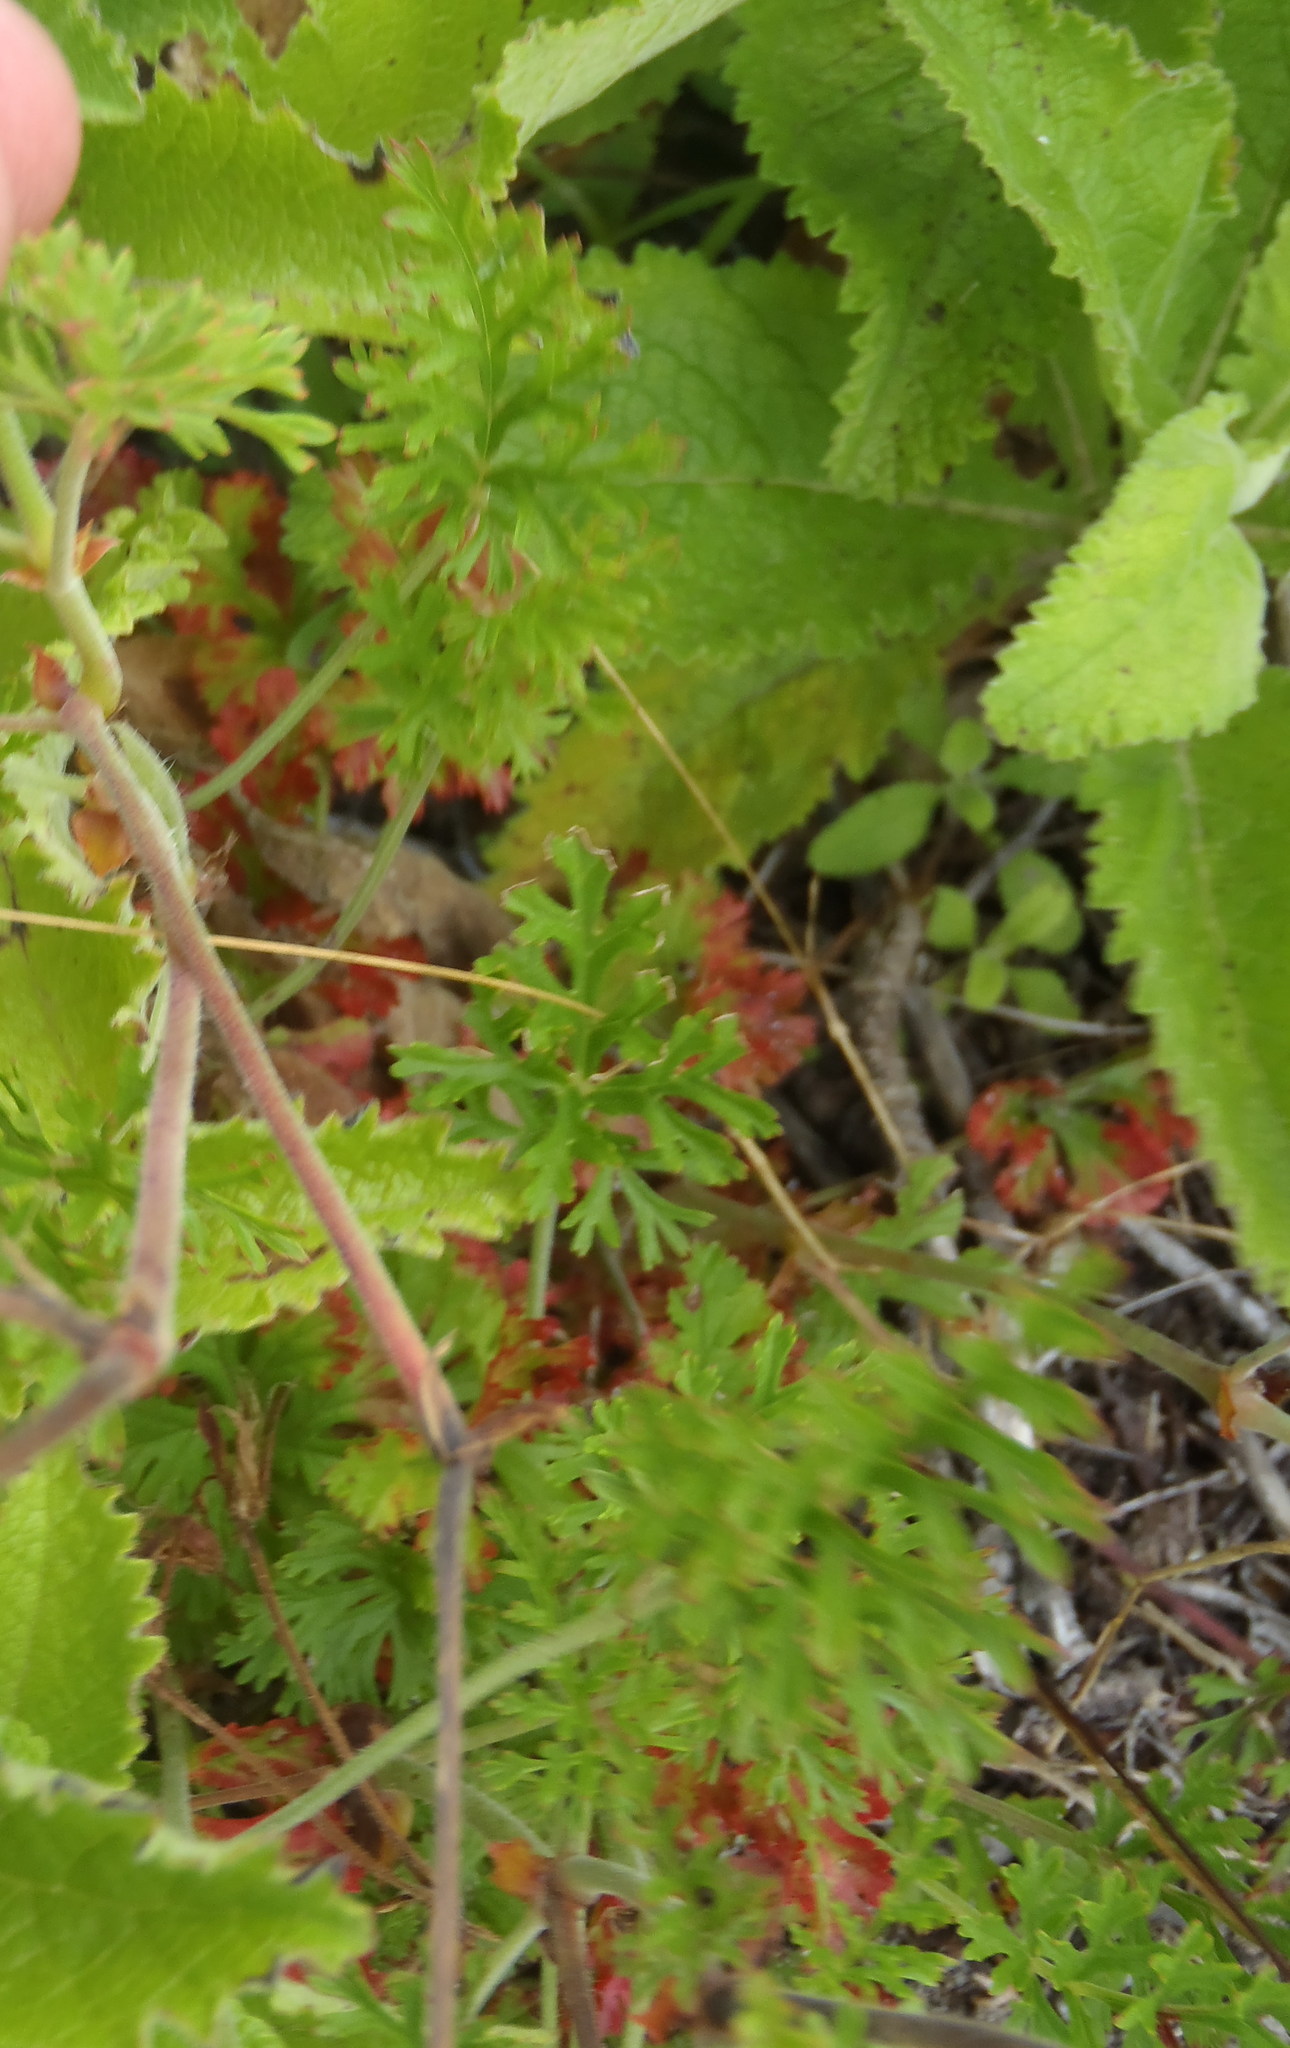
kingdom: Plantae
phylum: Tracheophyta
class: Magnoliopsida
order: Geraniales
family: Geraniaceae
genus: Pelargonium
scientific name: Pelargonium myrrhifolium
